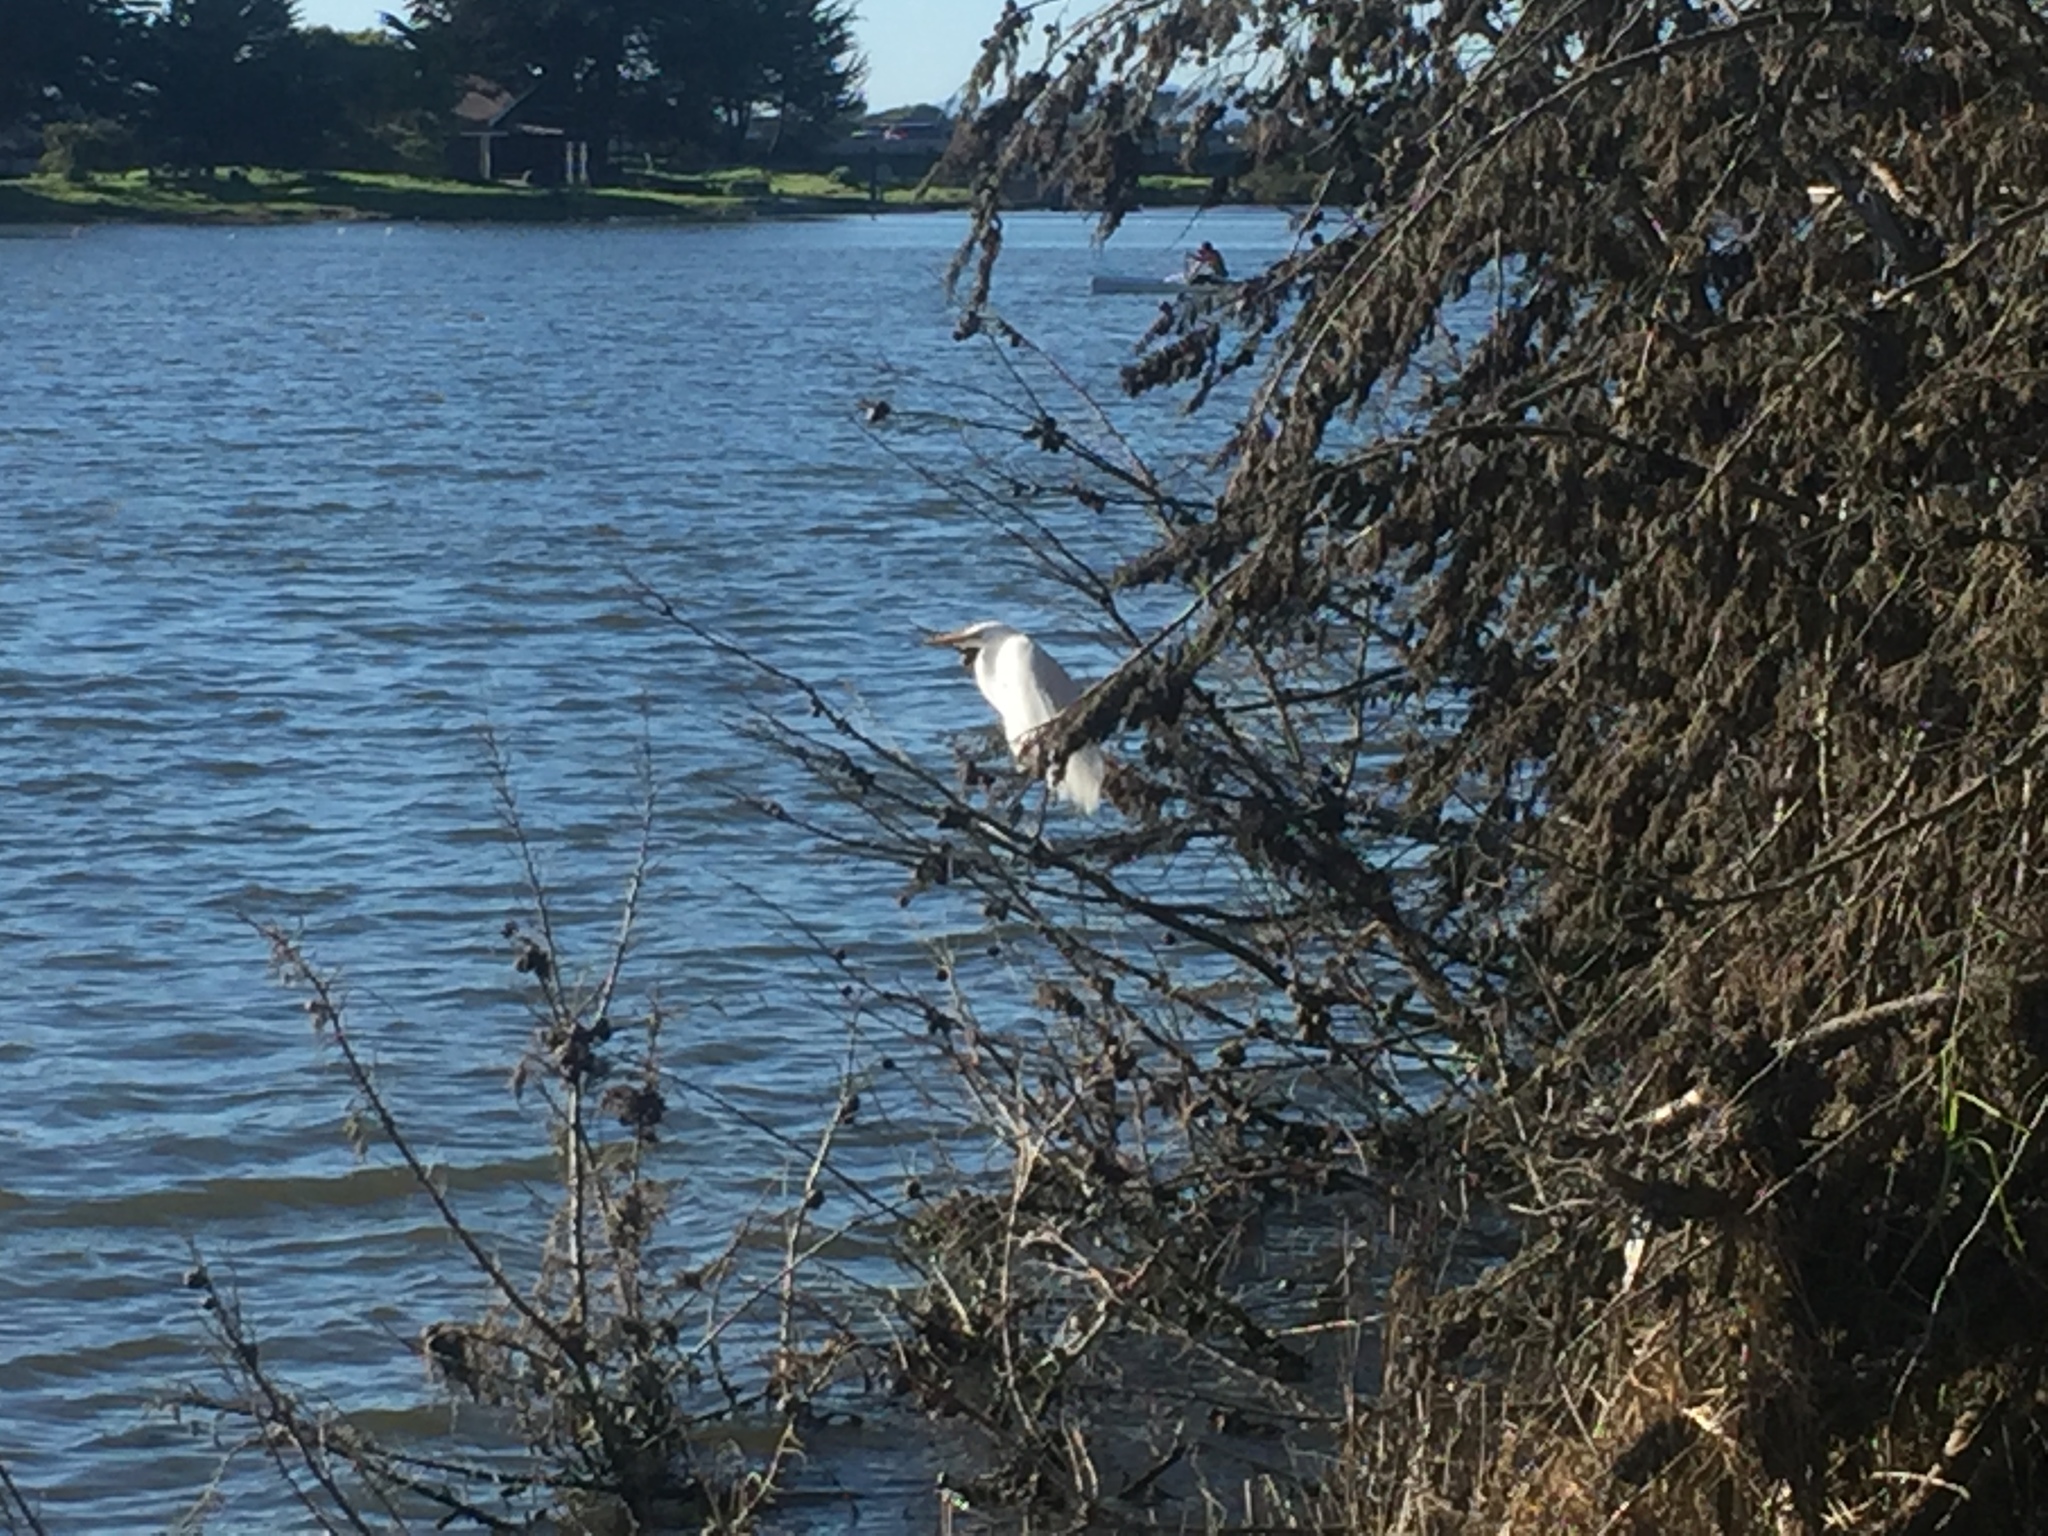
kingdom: Animalia
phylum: Chordata
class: Aves
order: Pelecaniformes
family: Ardeidae
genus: Ardea
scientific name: Ardea alba
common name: Great egret
